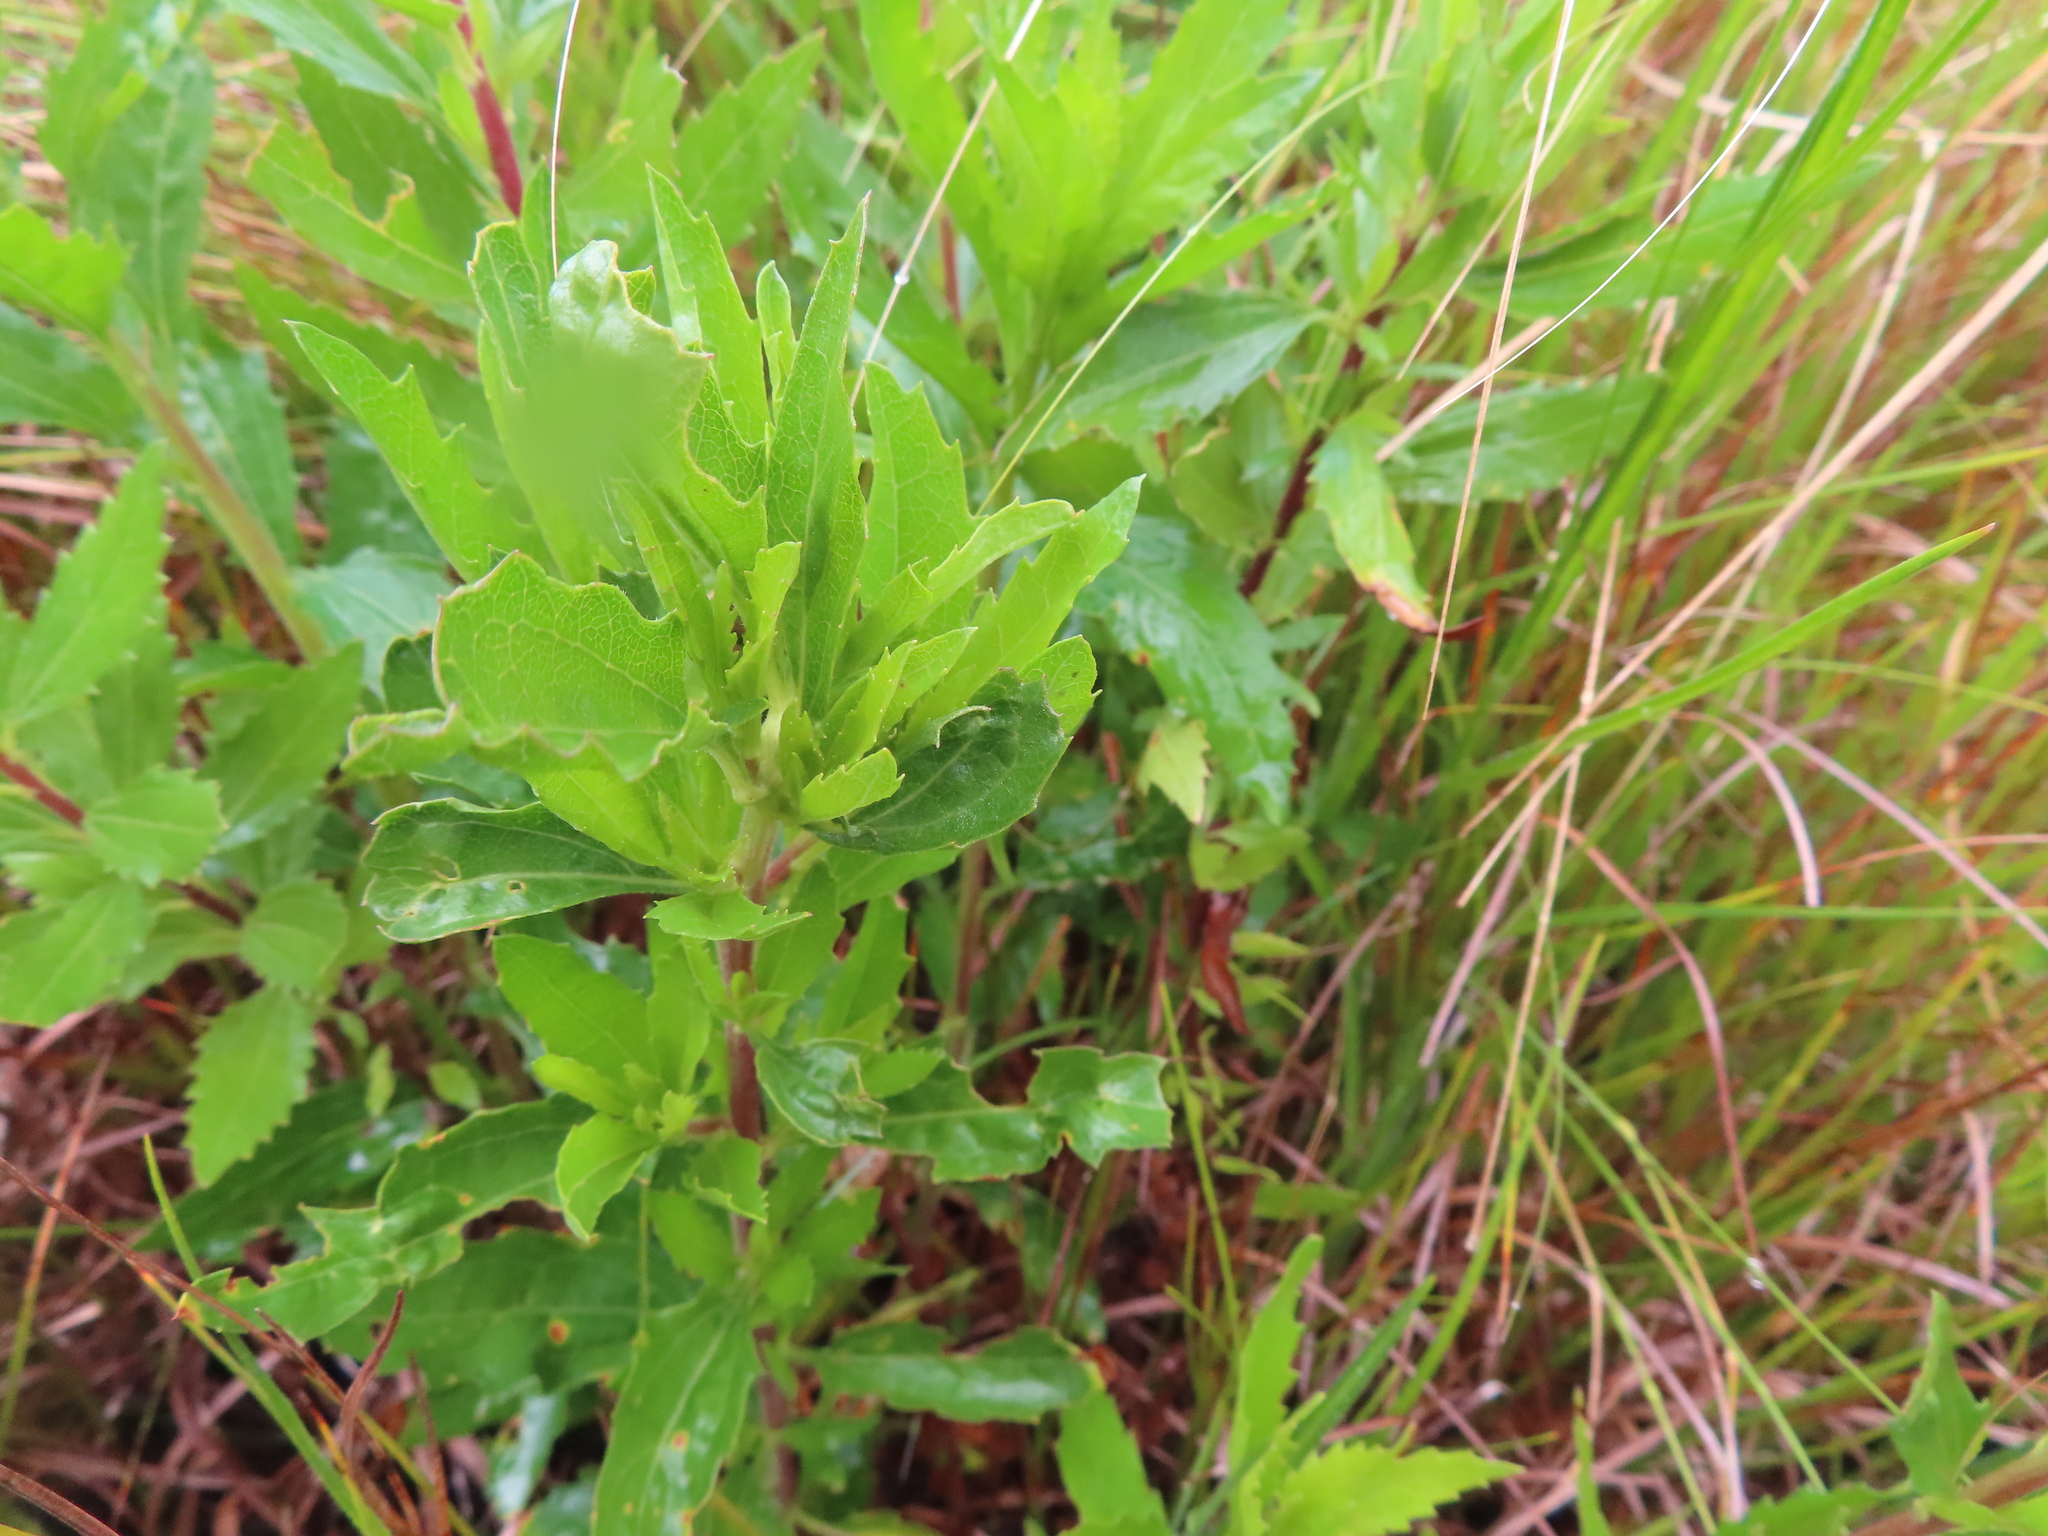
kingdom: Plantae
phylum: Tracheophyta
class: Magnoliopsida
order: Asterales
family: Asteraceae
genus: Nidorella
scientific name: Nidorella ivifolia
